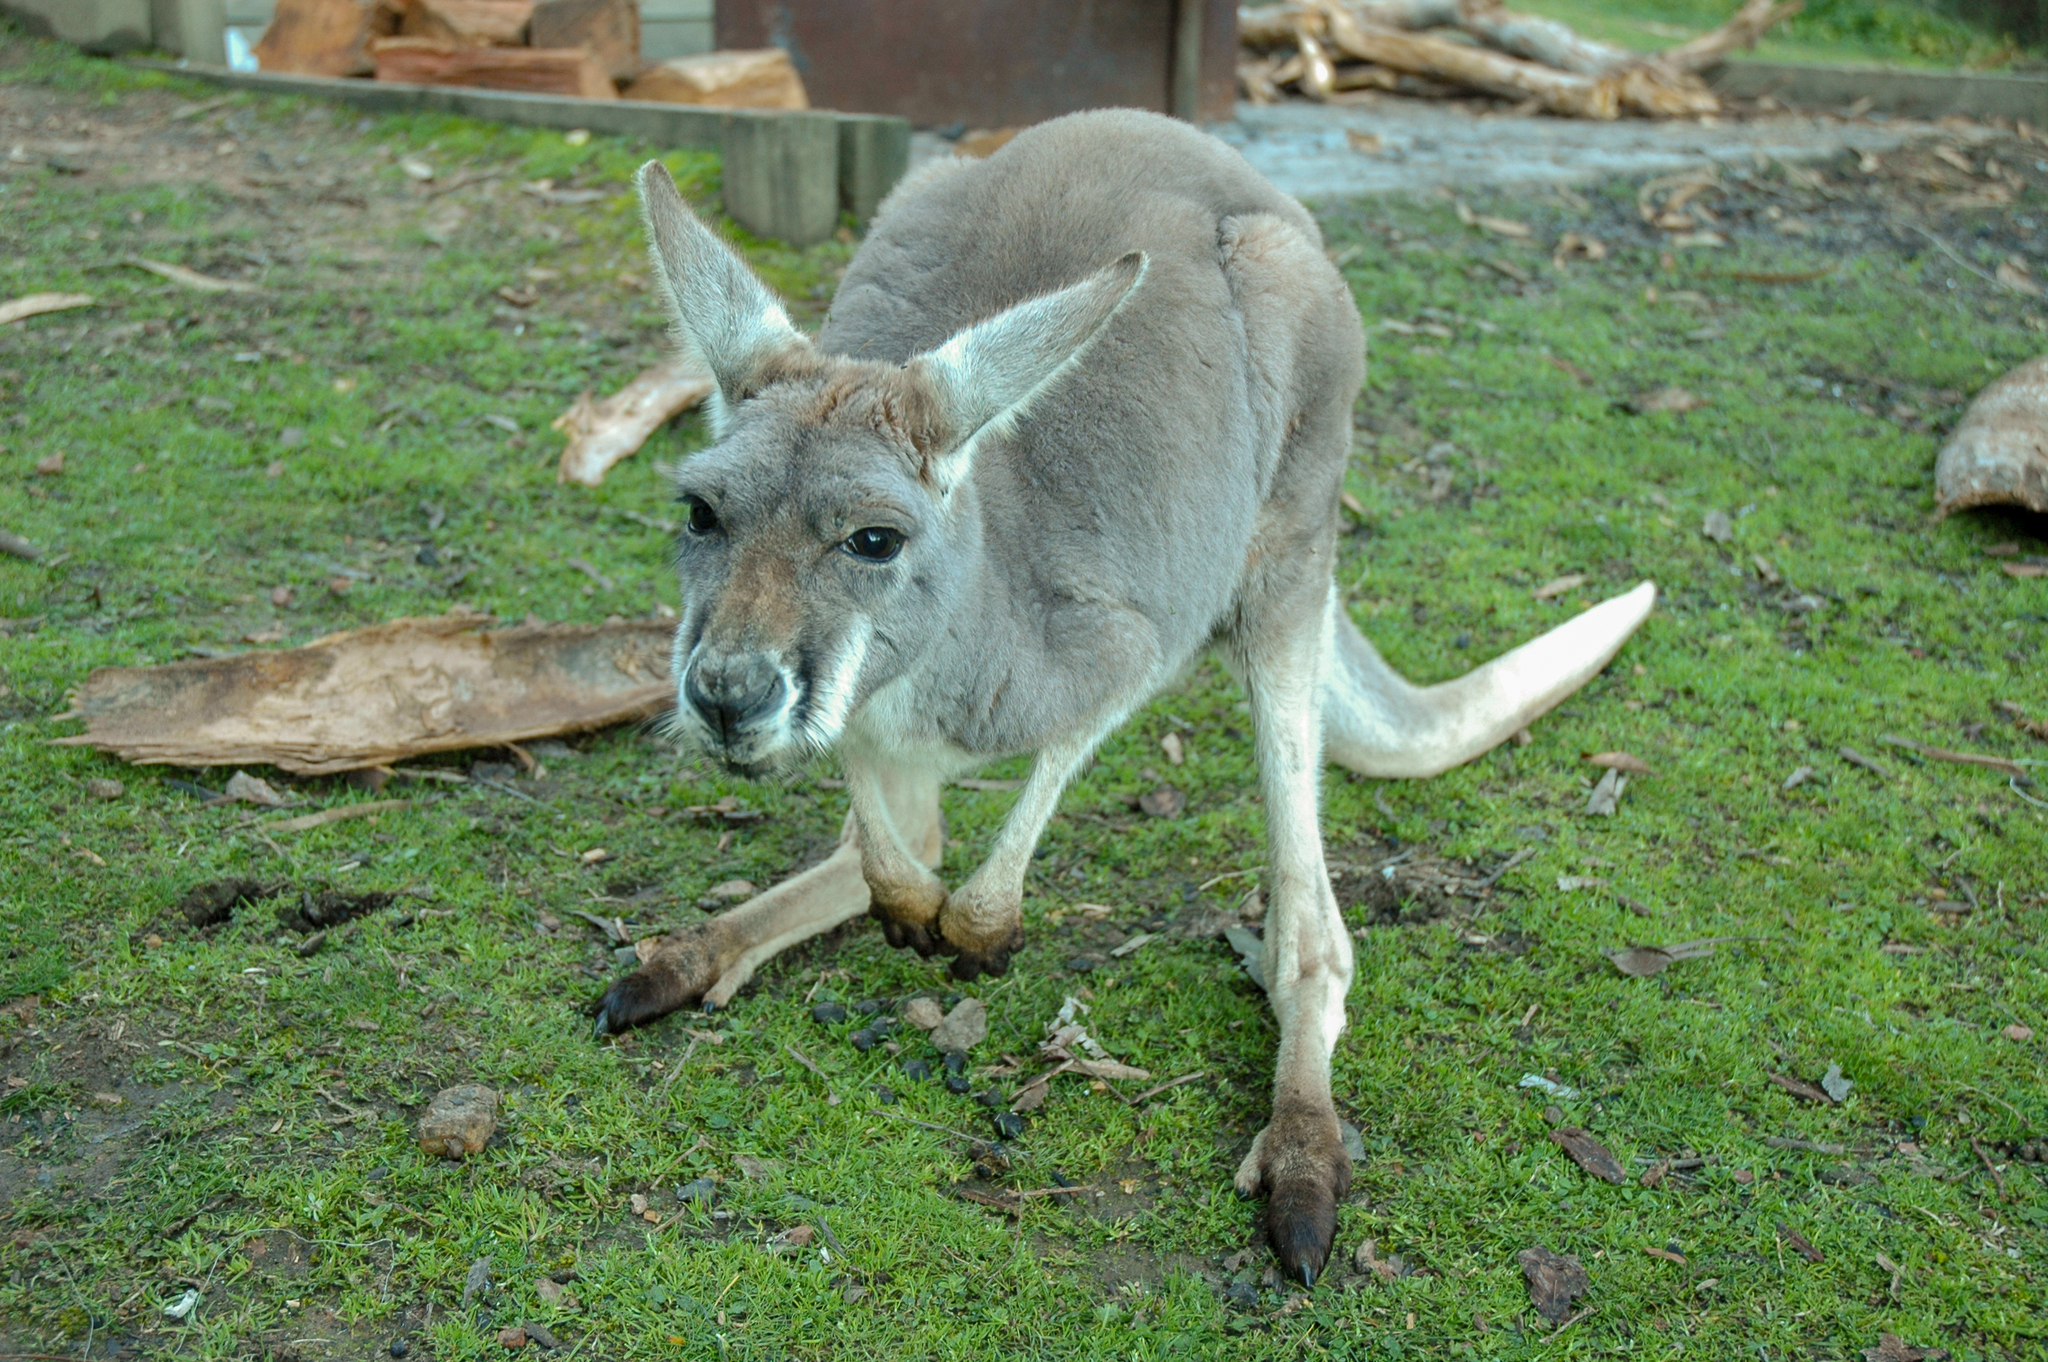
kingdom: Animalia
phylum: Chordata
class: Mammalia
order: Diprotodontia
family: Macropodidae
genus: Macropus
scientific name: Macropus rufus
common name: Red kangaroo
